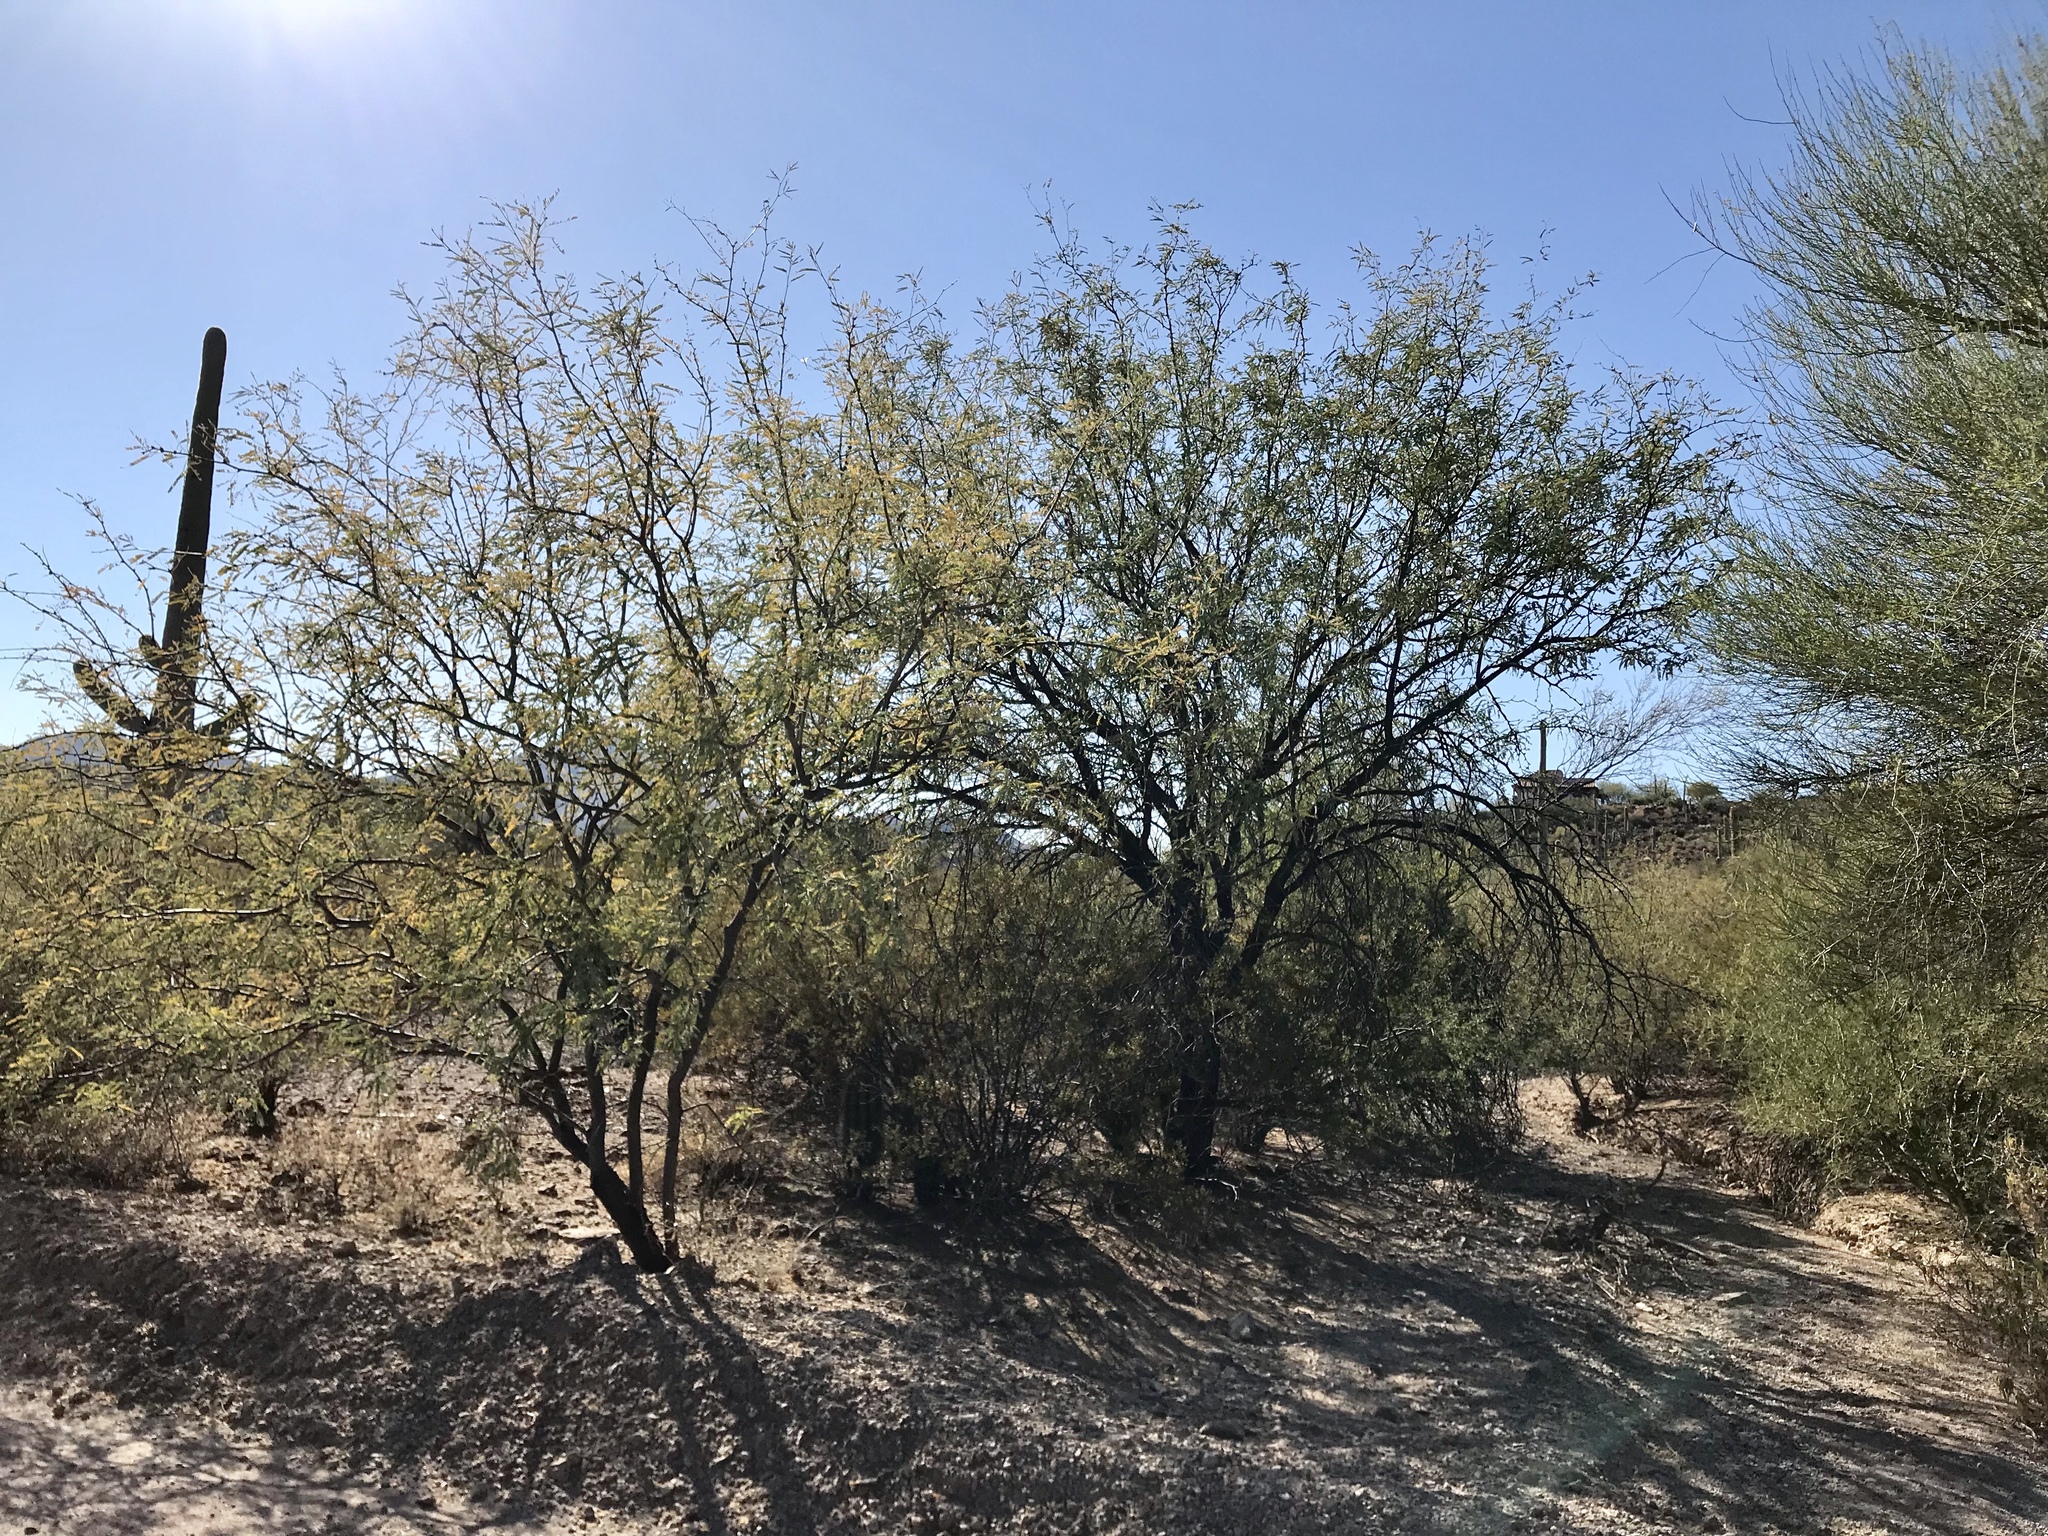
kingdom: Plantae
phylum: Tracheophyta
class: Magnoliopsida
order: Fabales
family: Fabaceae
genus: Prosopis
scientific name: Prosopis velutina
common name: Velvet mesquite
